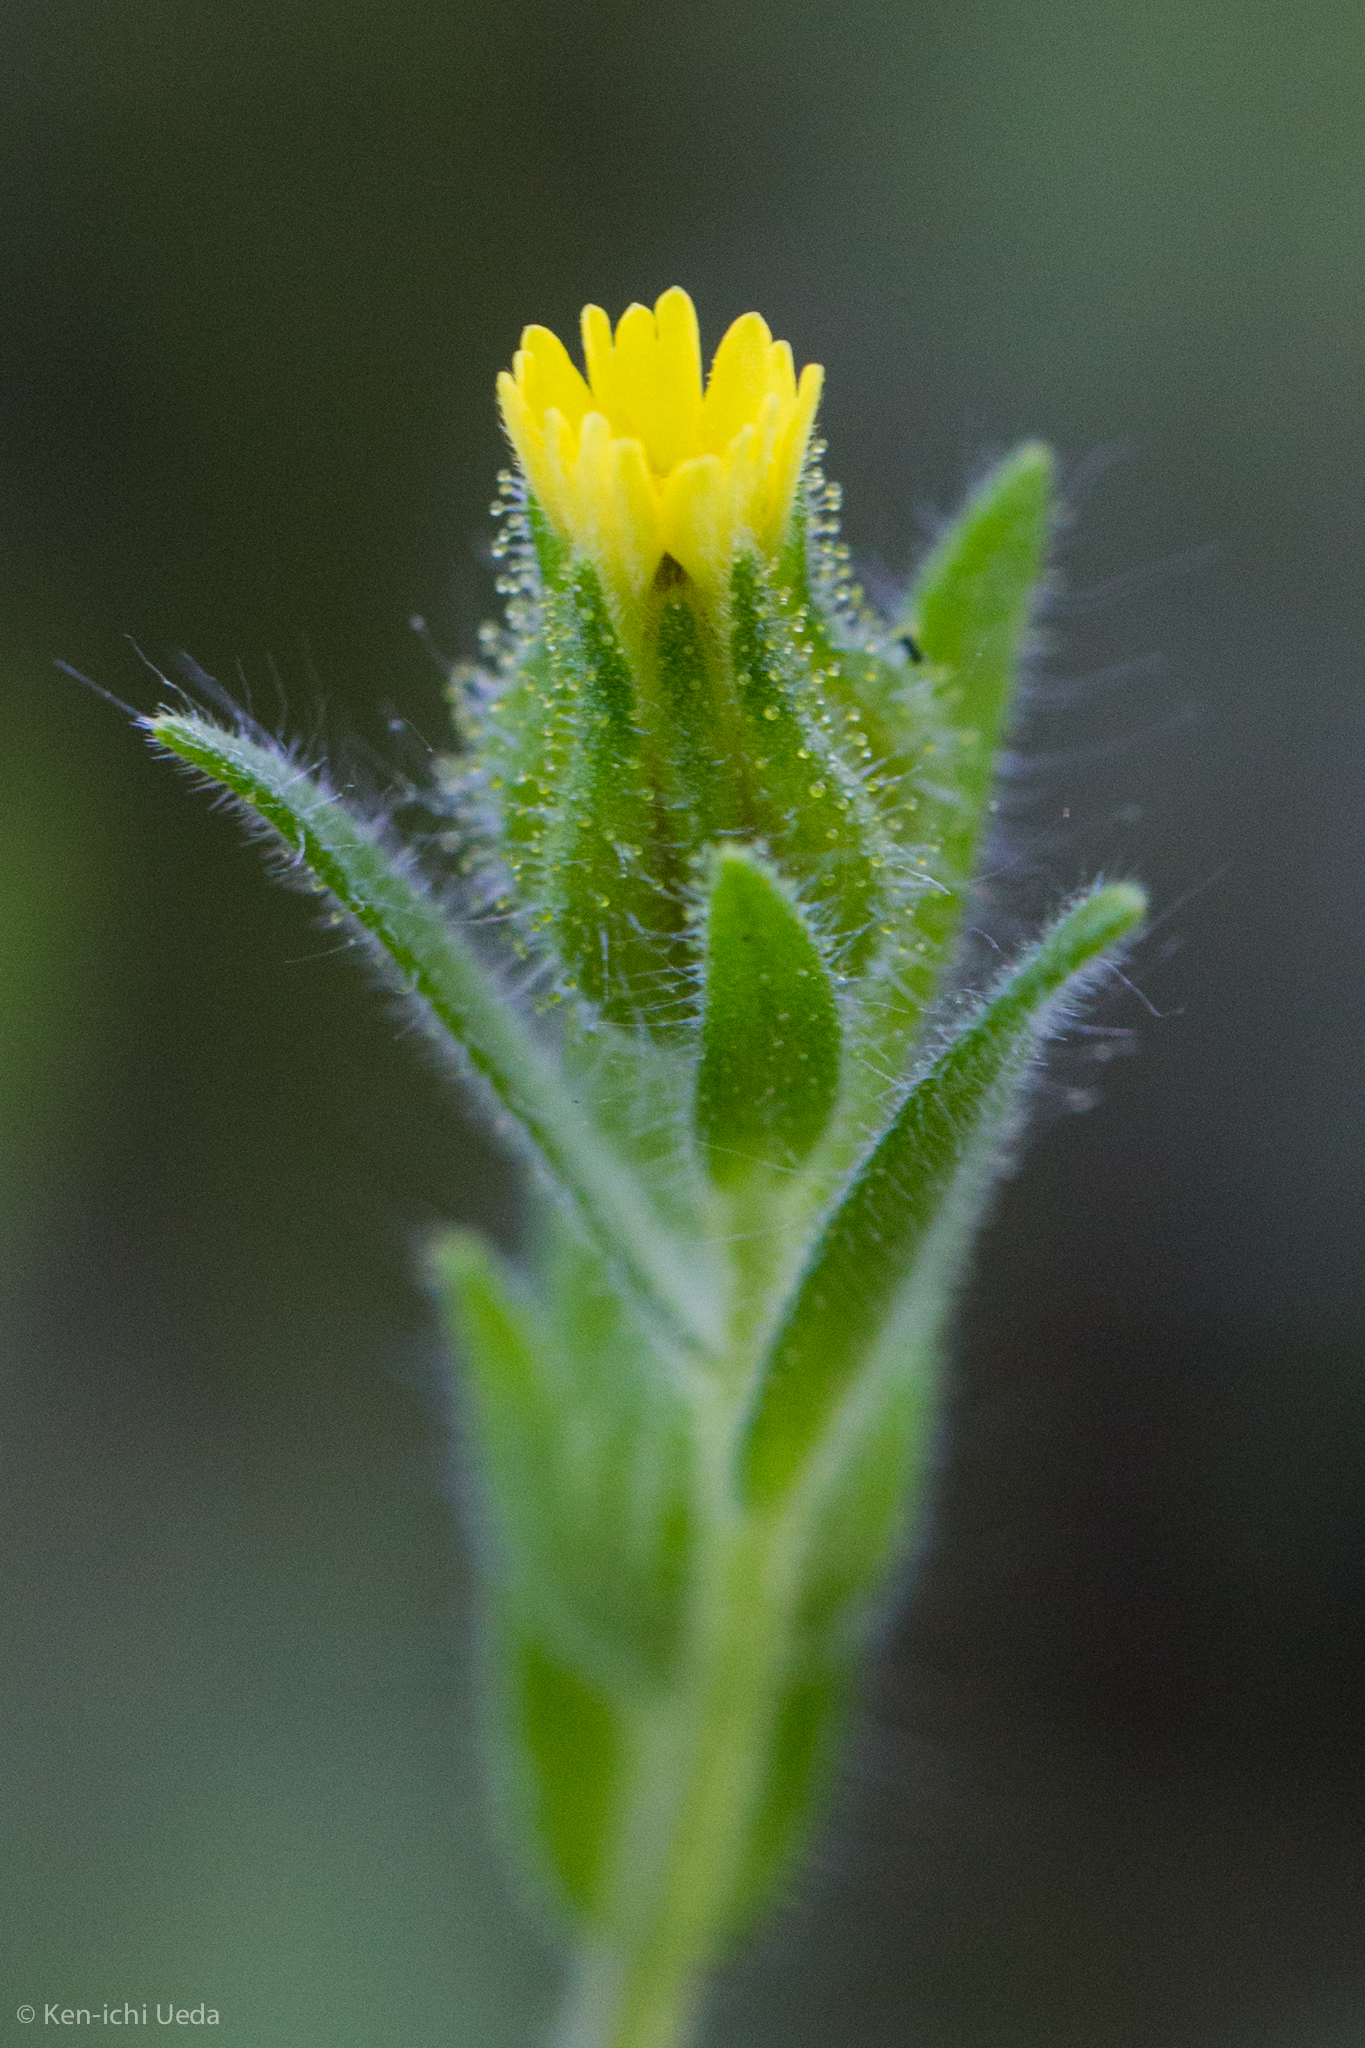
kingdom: Plantae
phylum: Tracheophyta
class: Magnoliopsida
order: Asterales
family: Asteraceae
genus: Madia
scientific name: Madia gracilis
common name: Grassy tarweed
